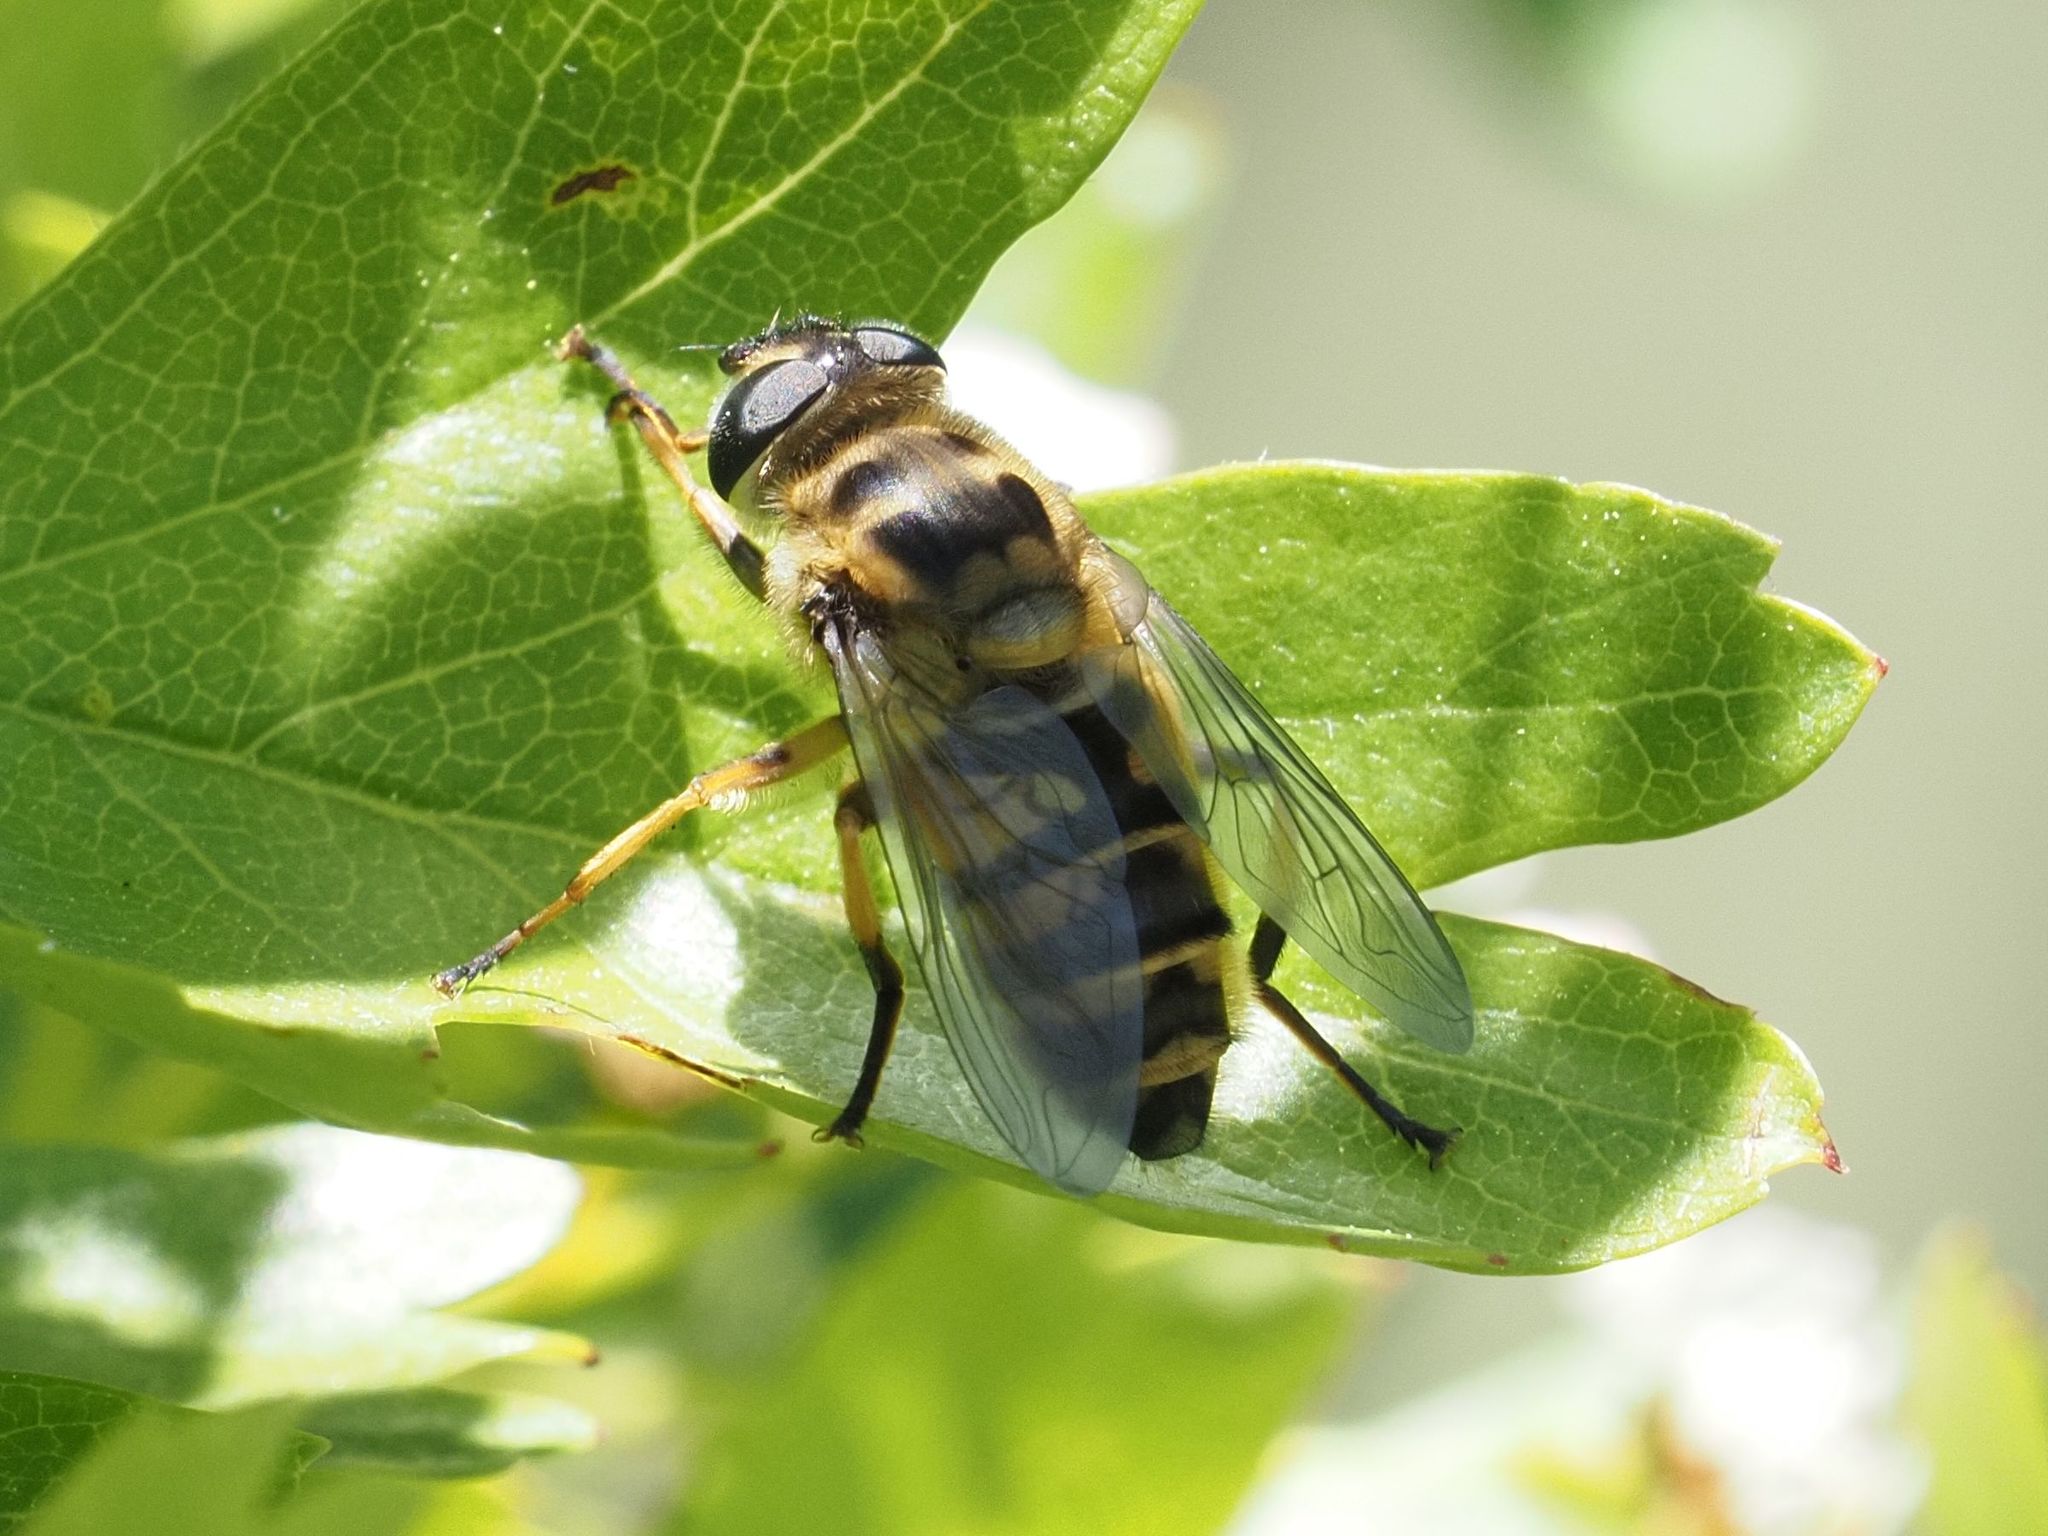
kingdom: Animalia
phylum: Arthropoda
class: Insecta
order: Diptera
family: Syrphidae
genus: Myathropa
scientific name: Myathropa florea
